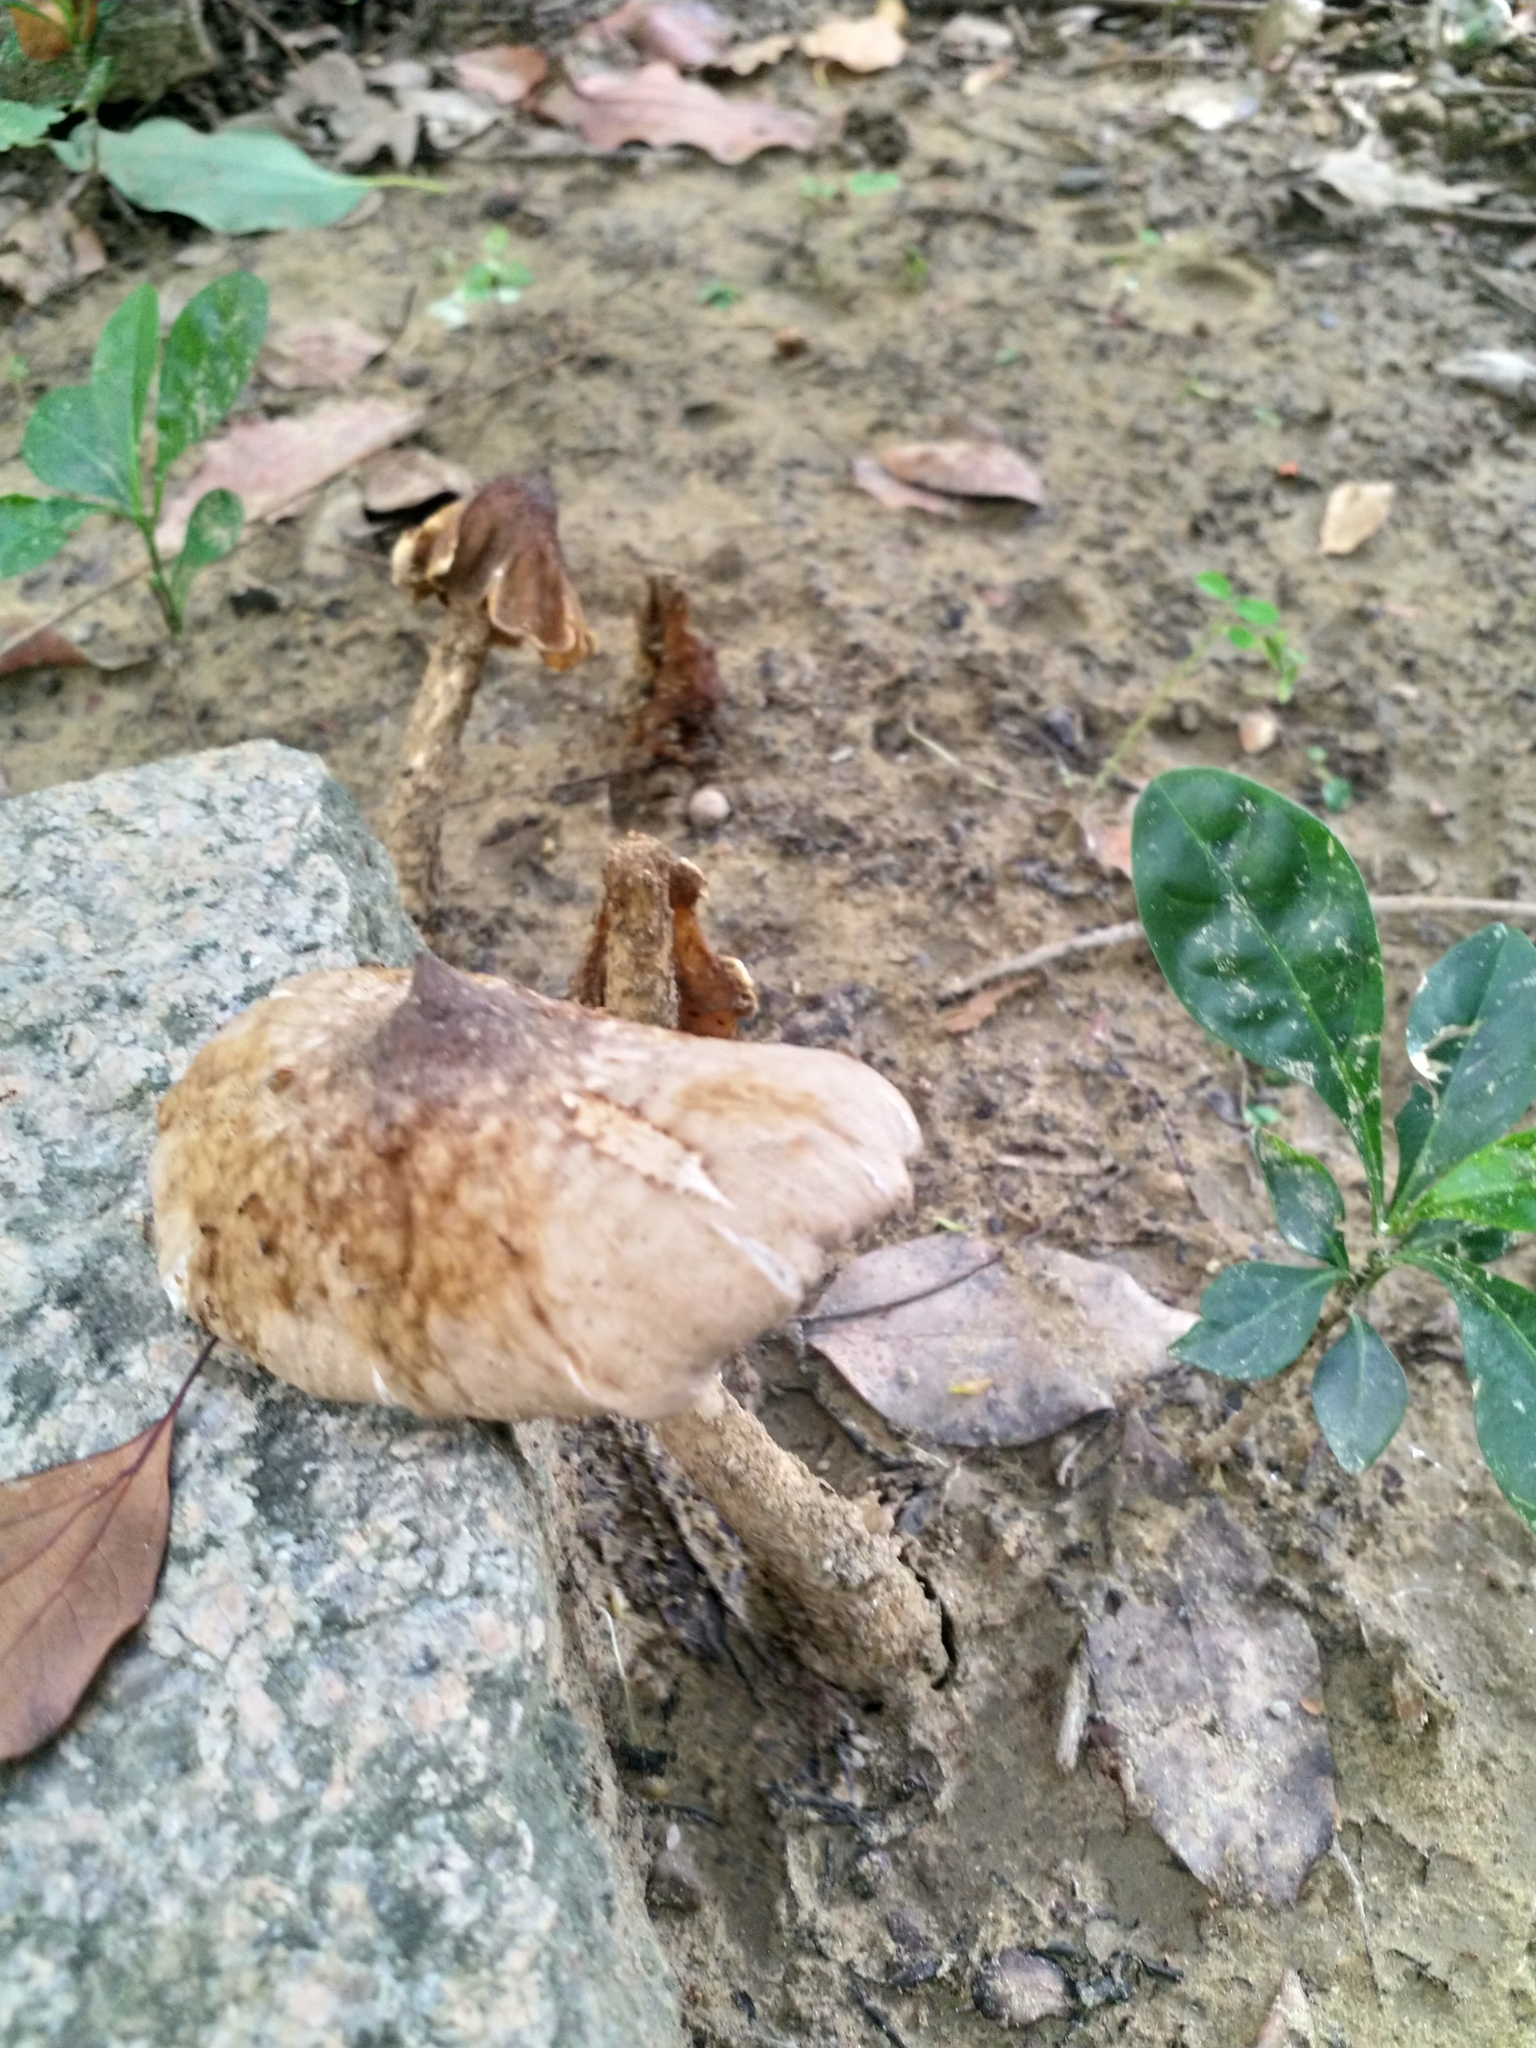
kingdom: Fungi
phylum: Basidiomycota
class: Agaricomycetes
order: Agaricales
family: Lyophyllaceae
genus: Termitomyces
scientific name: Termitomyces eurrhizus
